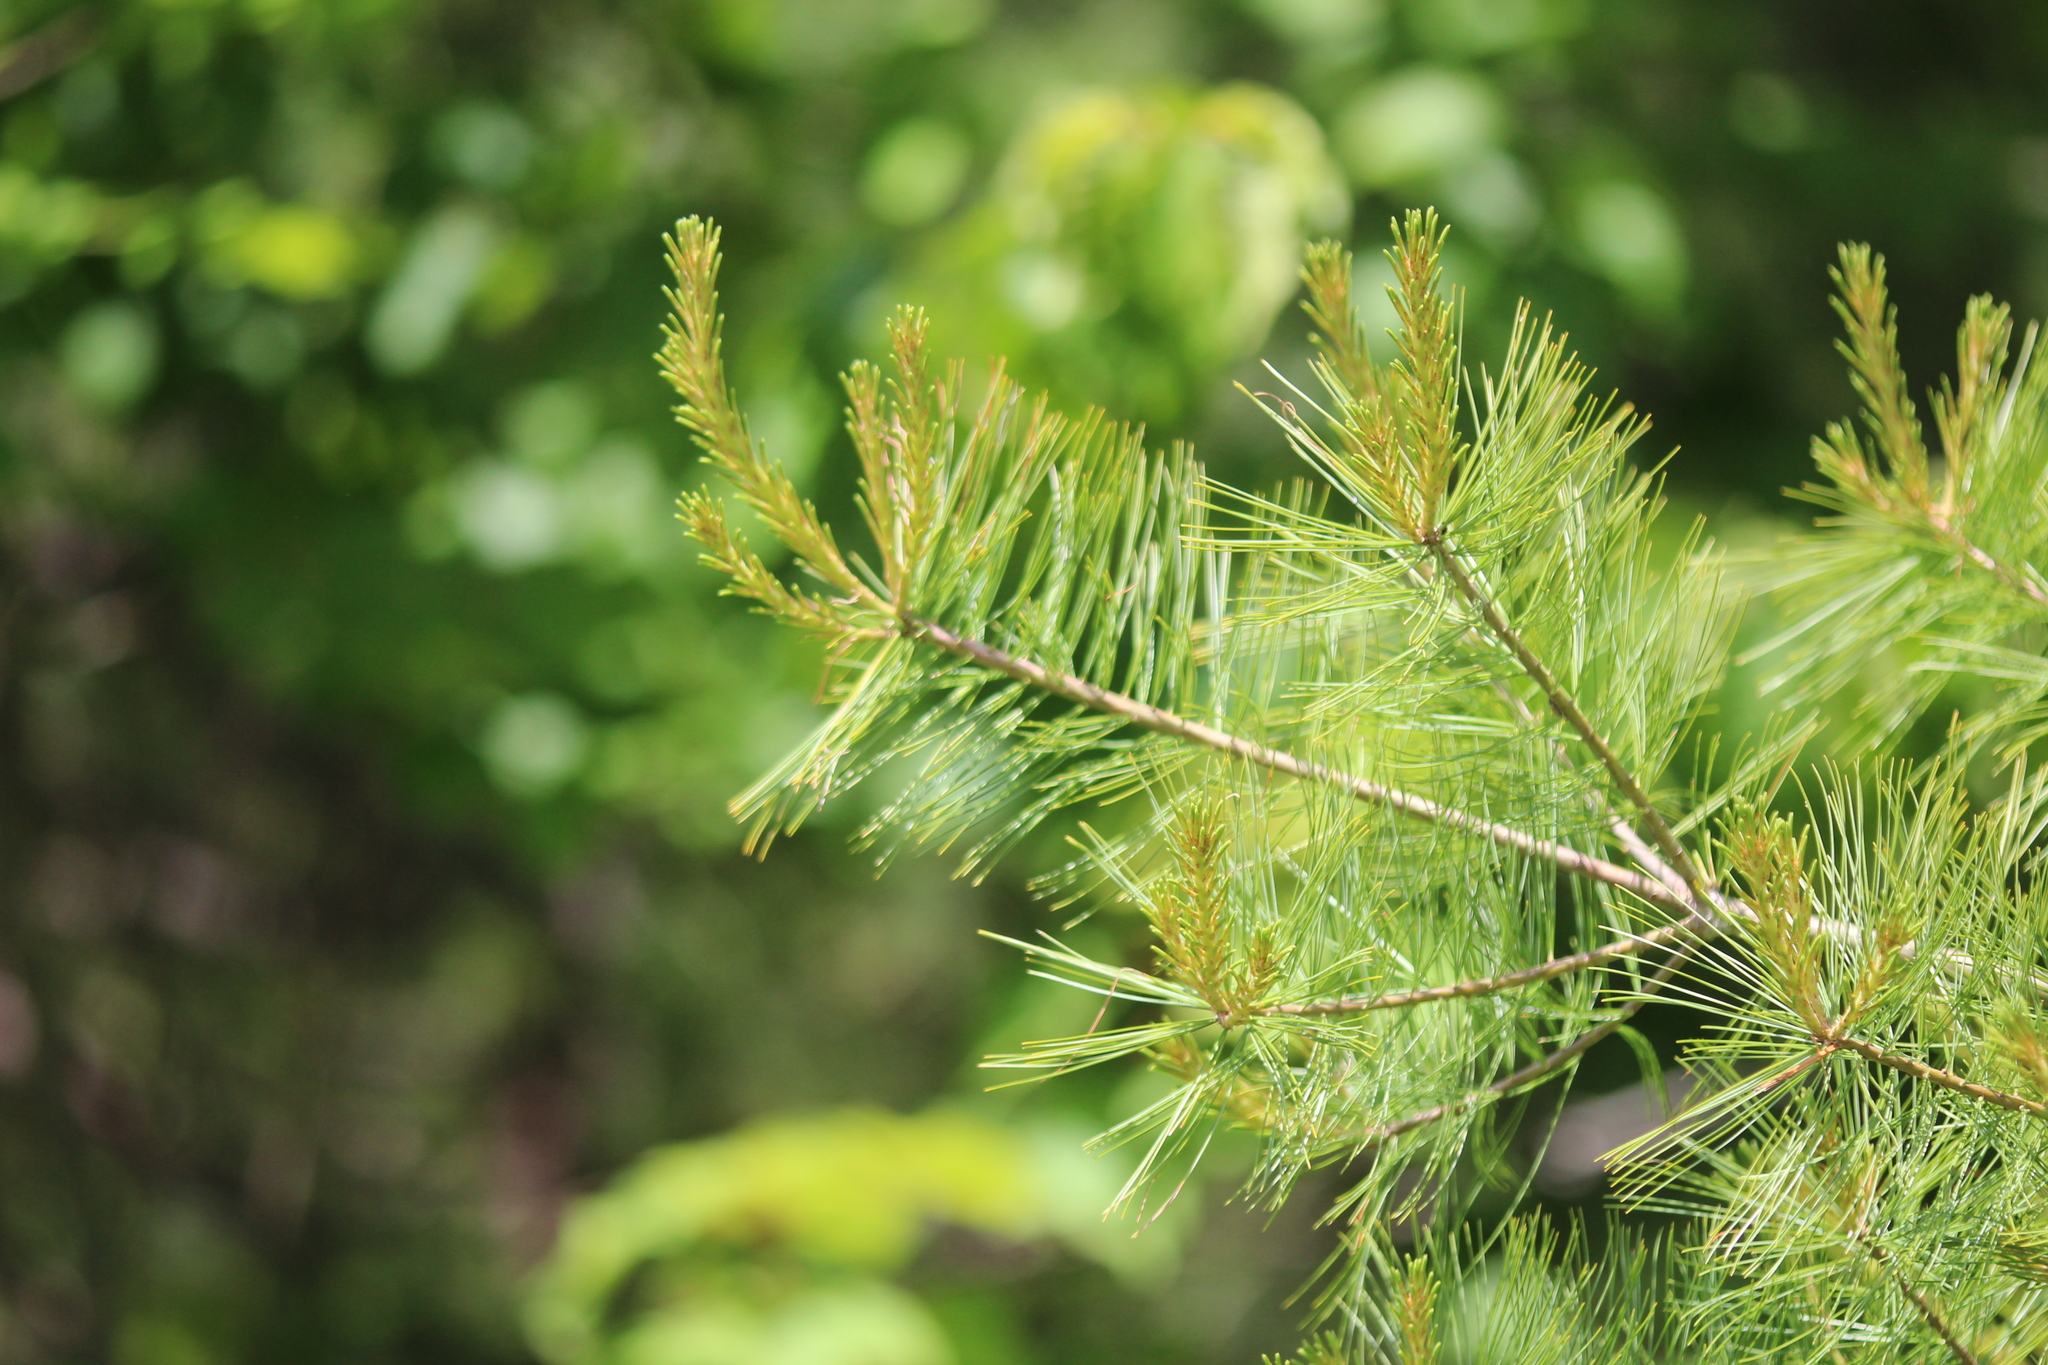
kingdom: Plantae
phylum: Tracheophyta
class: Pinopsida
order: Pinales
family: Pinaceae
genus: Pinus
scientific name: Pinus strobus
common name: Weymouth pine
